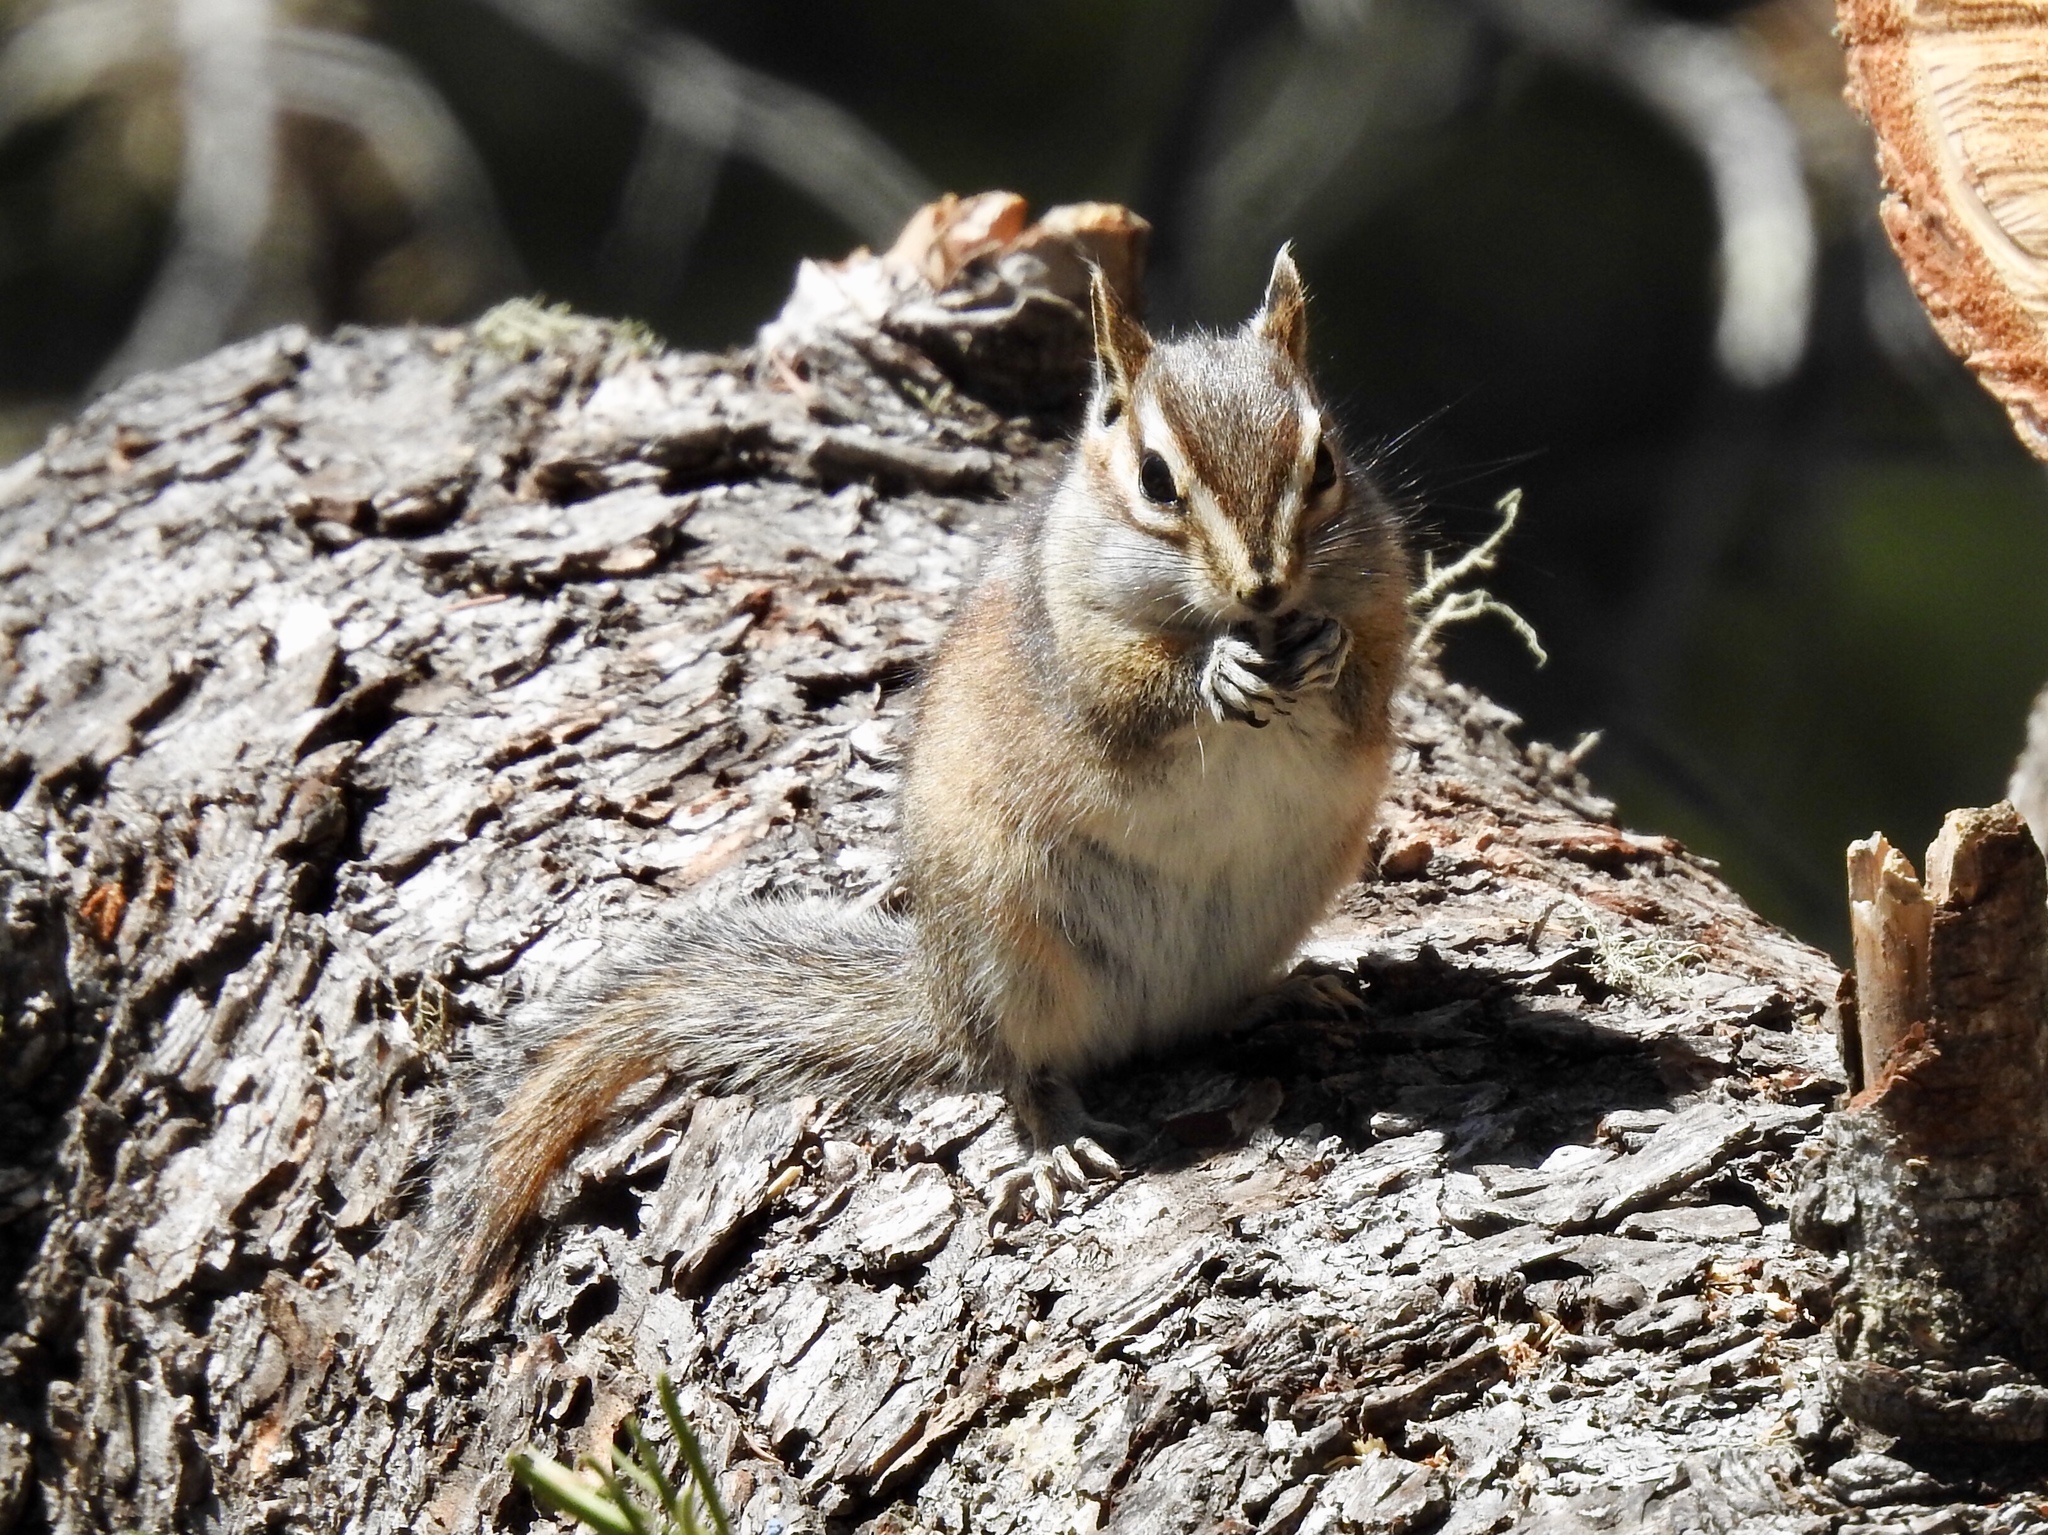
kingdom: Animalia
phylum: Chordata
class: Mammalia
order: Rodentia
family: Sciuridae
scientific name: Sciuridae
